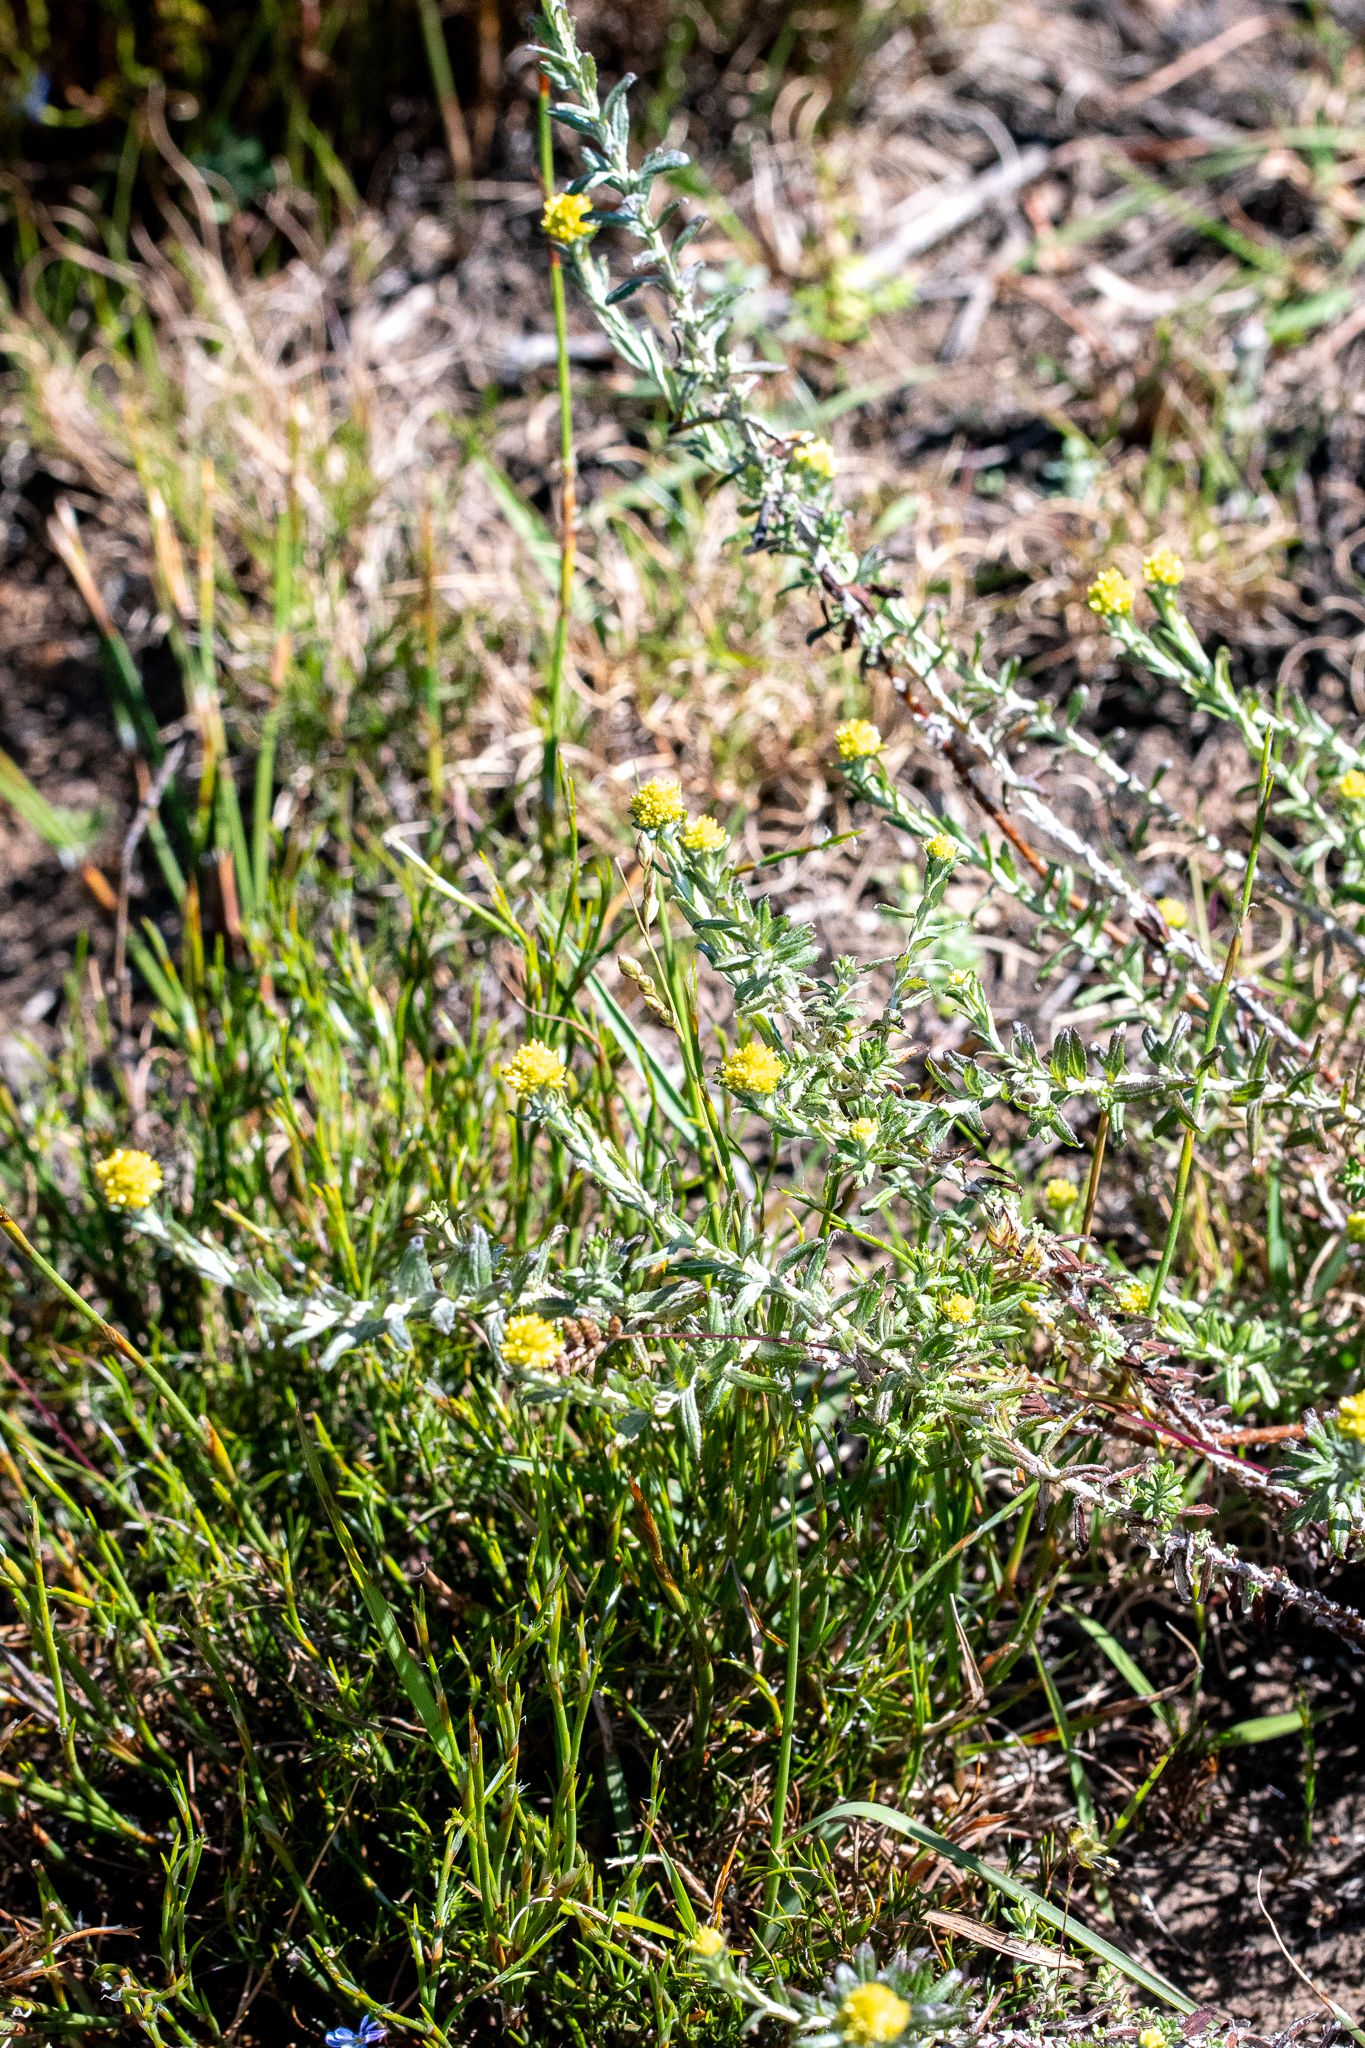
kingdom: Plantae
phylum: Tracheophyta
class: Magnoliopsida
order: Asterales
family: Asteraceae
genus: Helichrysum
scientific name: Helichrysum cymosum
